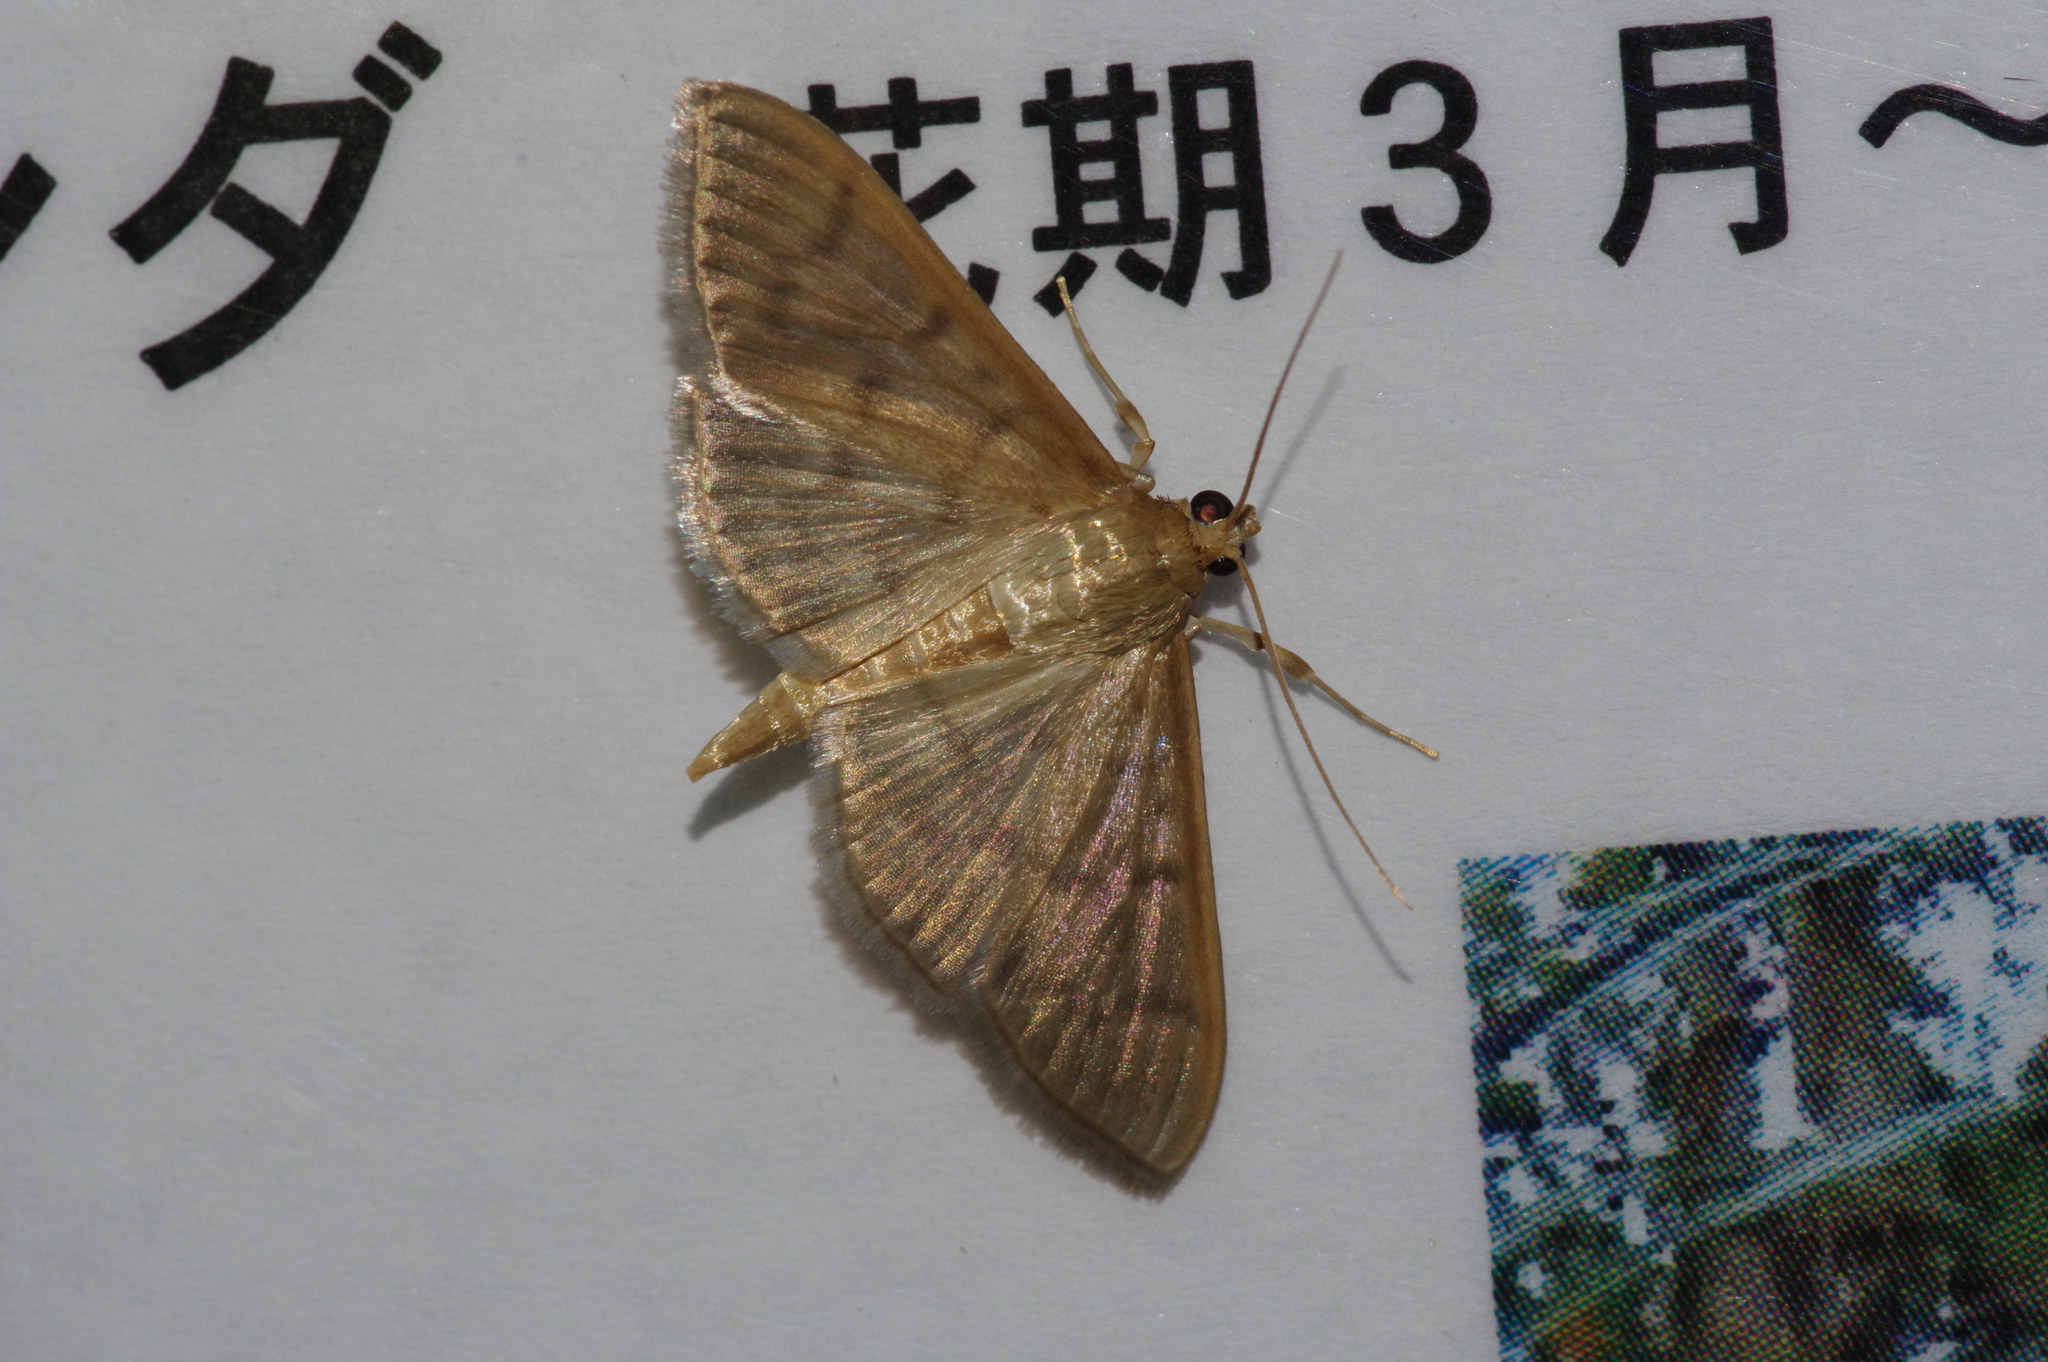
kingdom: Animalia
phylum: Arthropoda
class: Insecta
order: Lepidoptera
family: Crambidae
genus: Patania
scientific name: Patania sabinusalis
